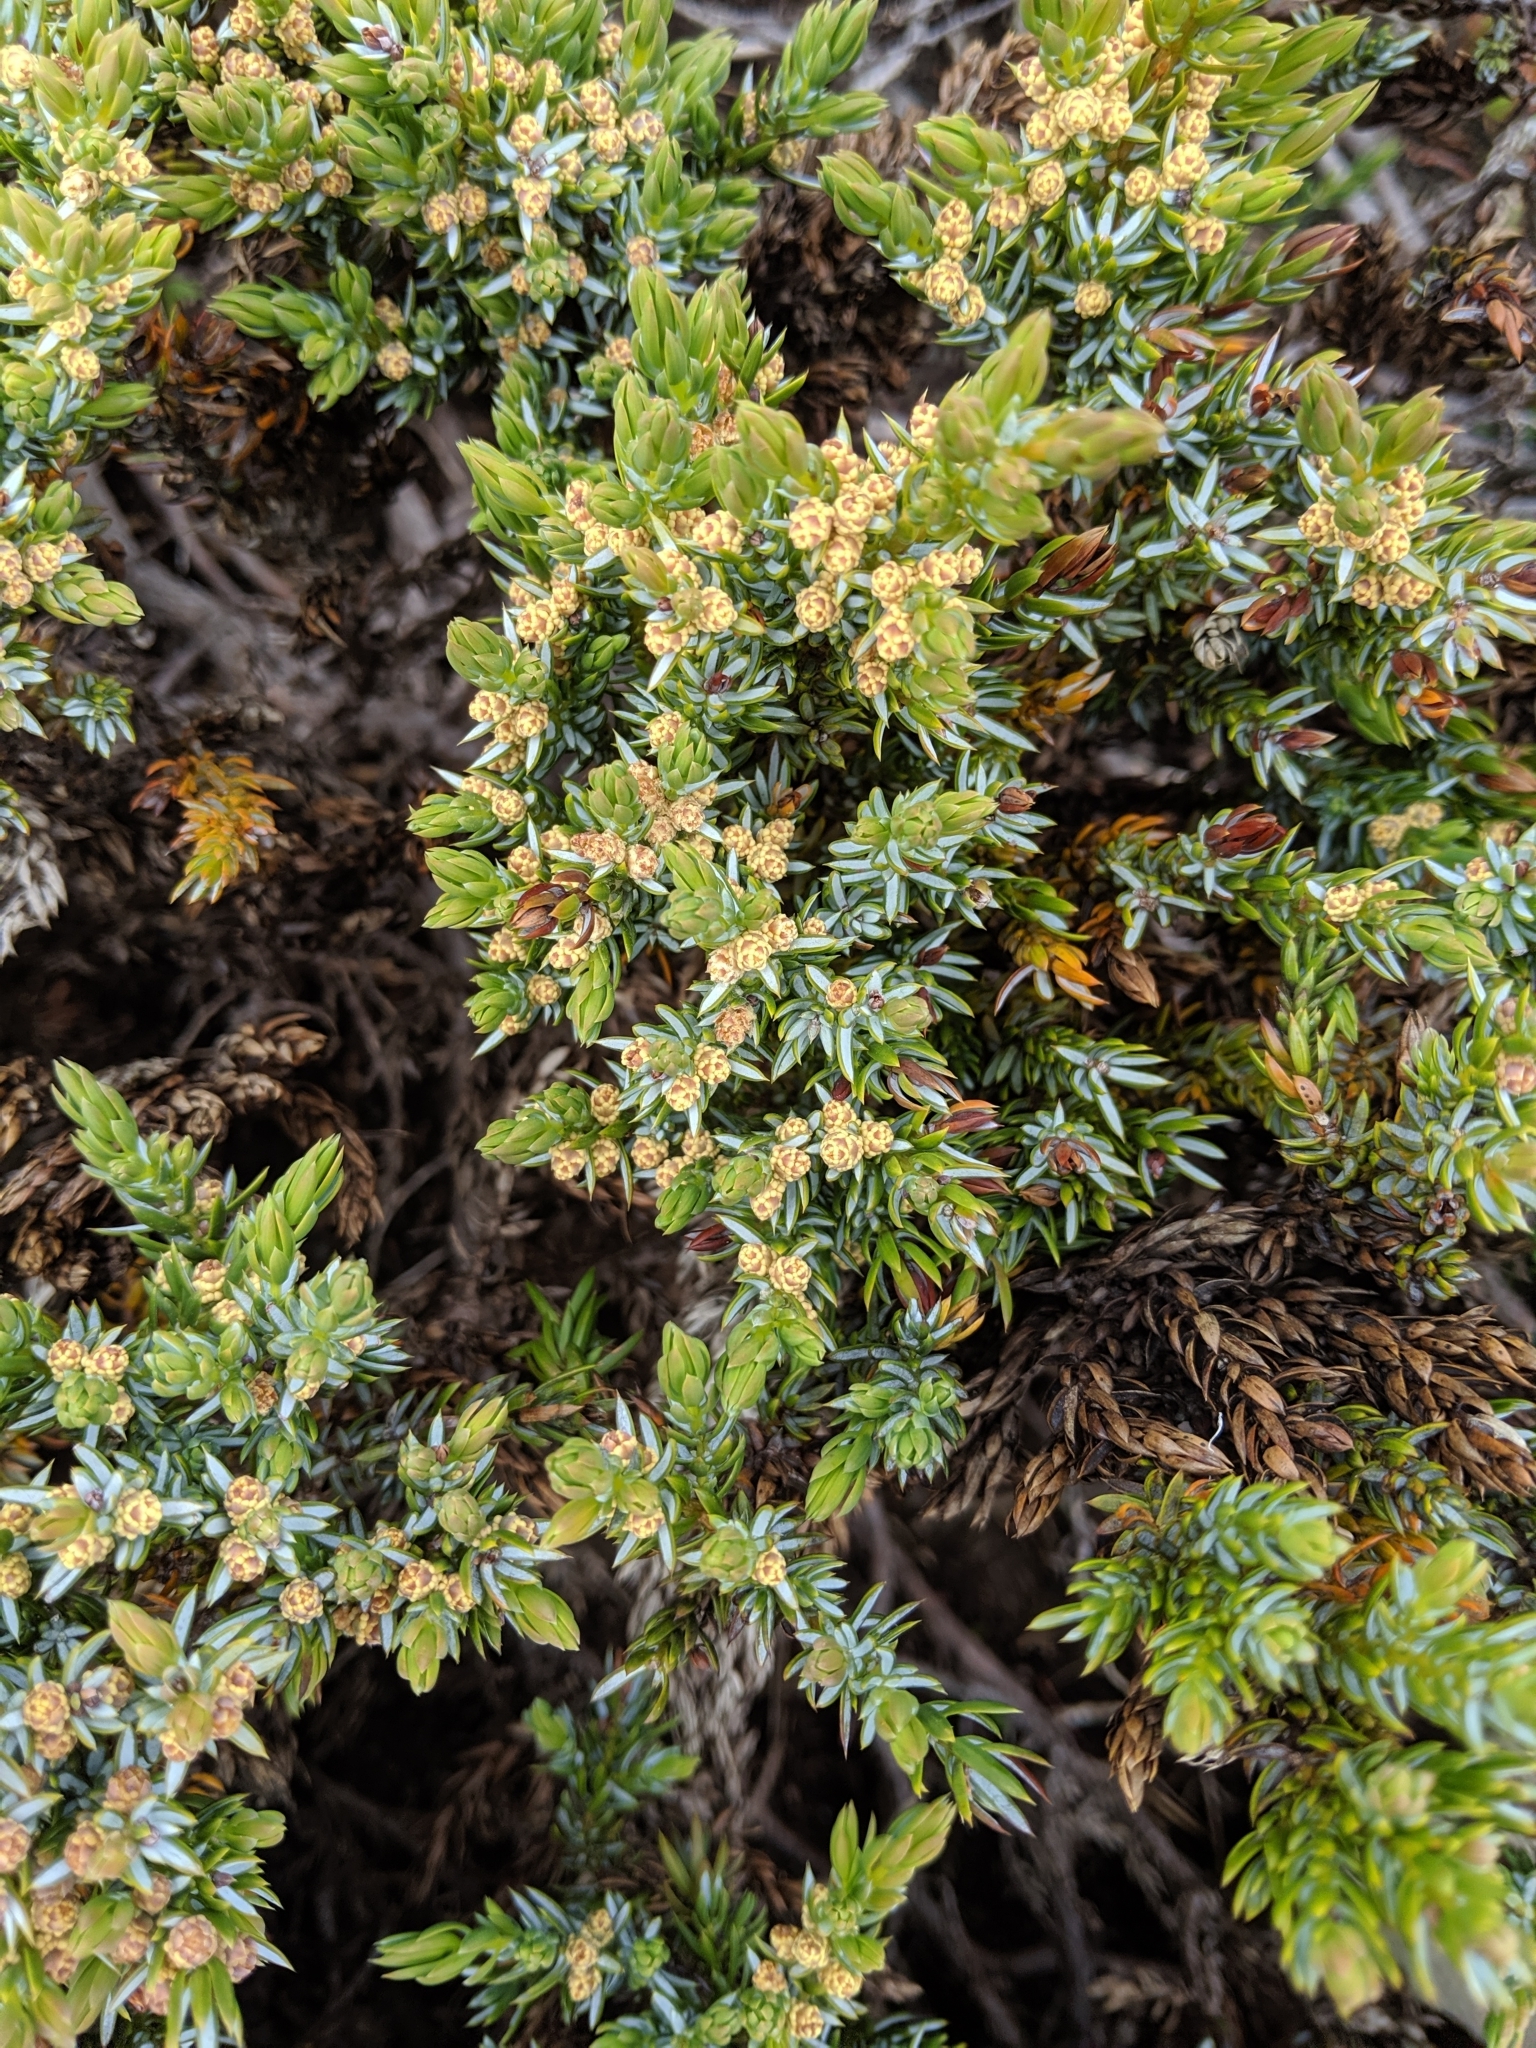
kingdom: Plantae
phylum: Tracheophyta
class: Pinopsida
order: Pinales
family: Cupressaceae
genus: Juniperus
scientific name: Juniperus communis
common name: Common juniper
